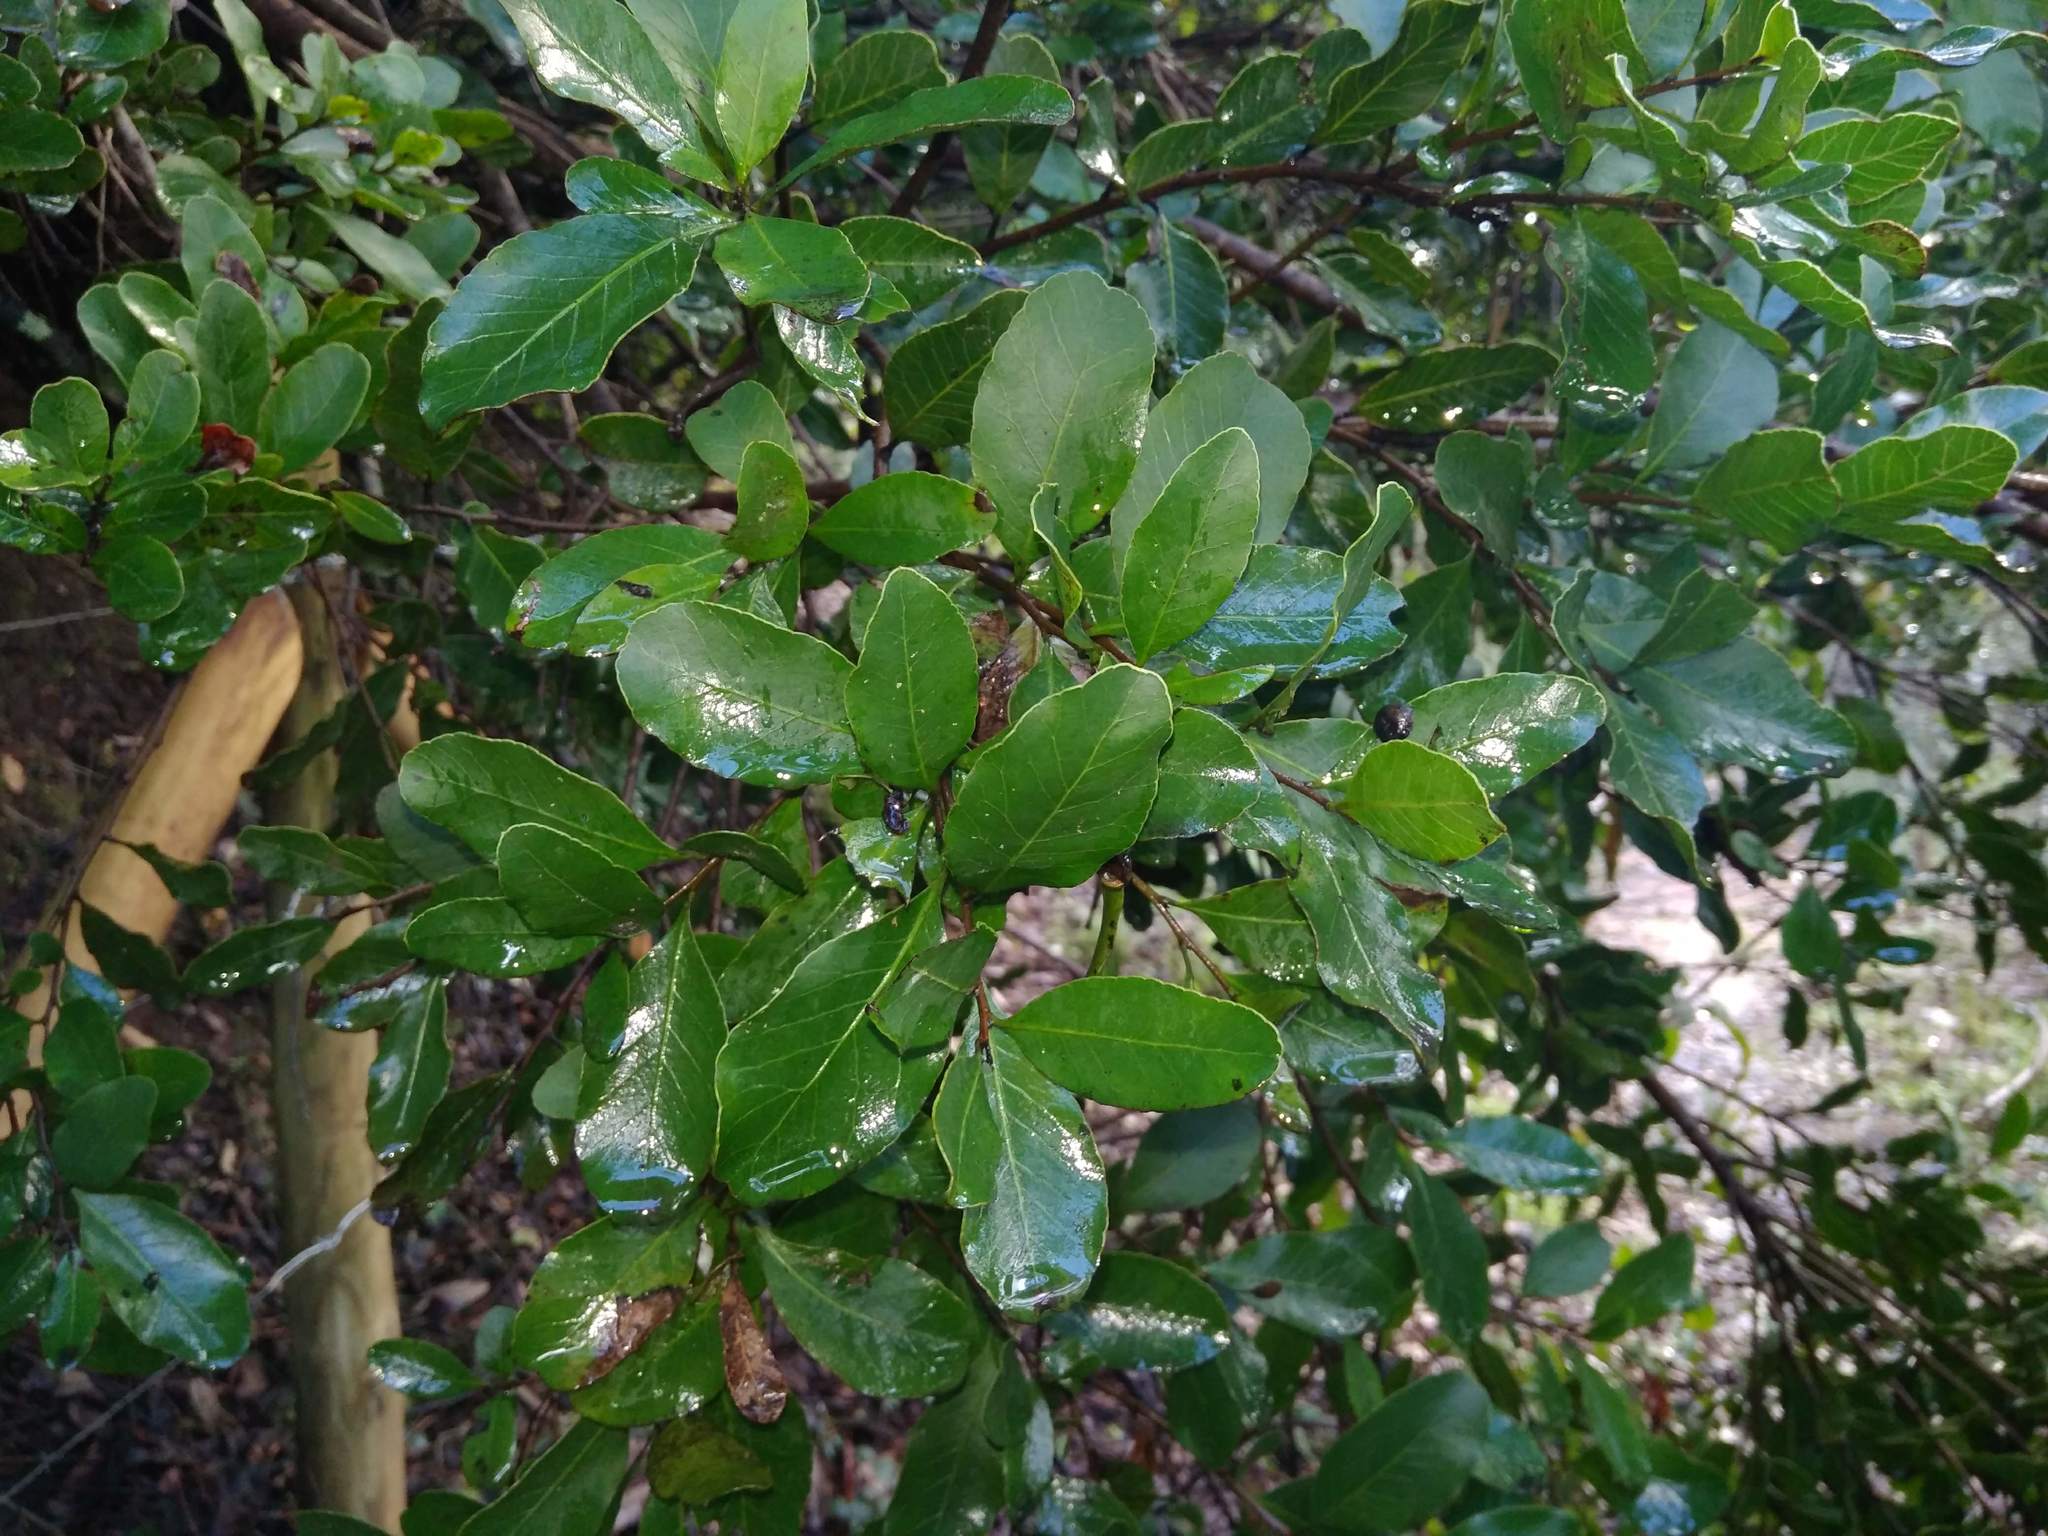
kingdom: Plantae
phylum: Tracheophyta
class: Magnoliopsida
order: Sapindales
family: Anacardiaceae
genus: Lithraea
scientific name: Lithraea caustica
